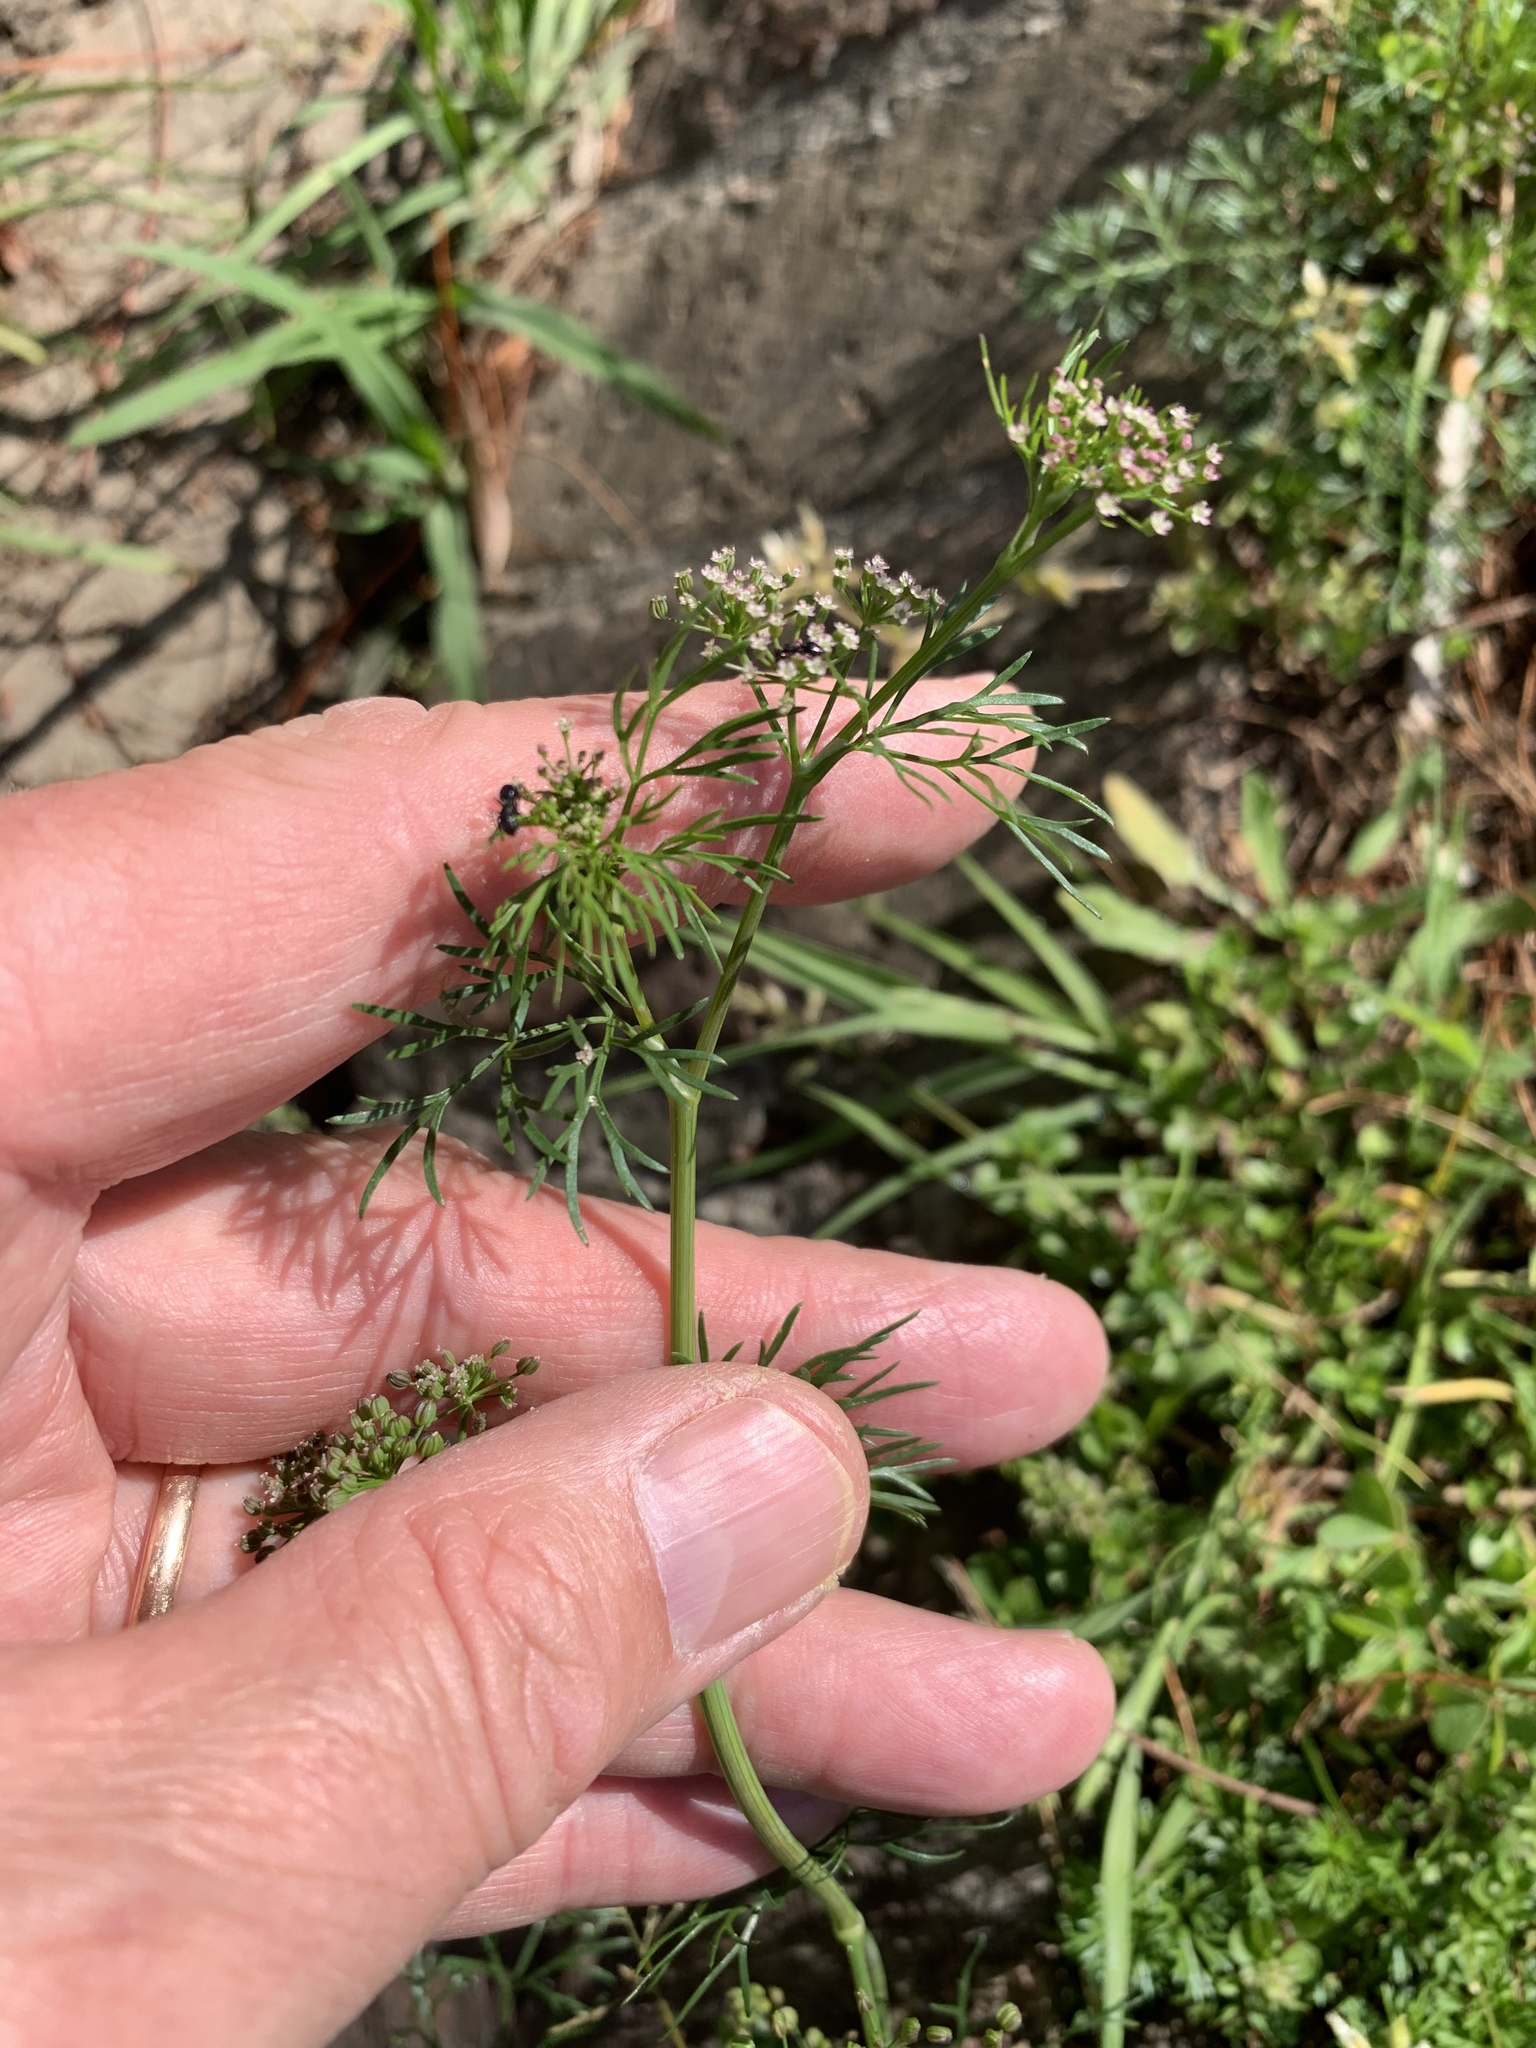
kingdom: Plantae
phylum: Tracheophyta
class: Magnoliopsida
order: Apiales
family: Apiaceae
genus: Cyclospermum
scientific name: Cyclospermum leptophyllum
